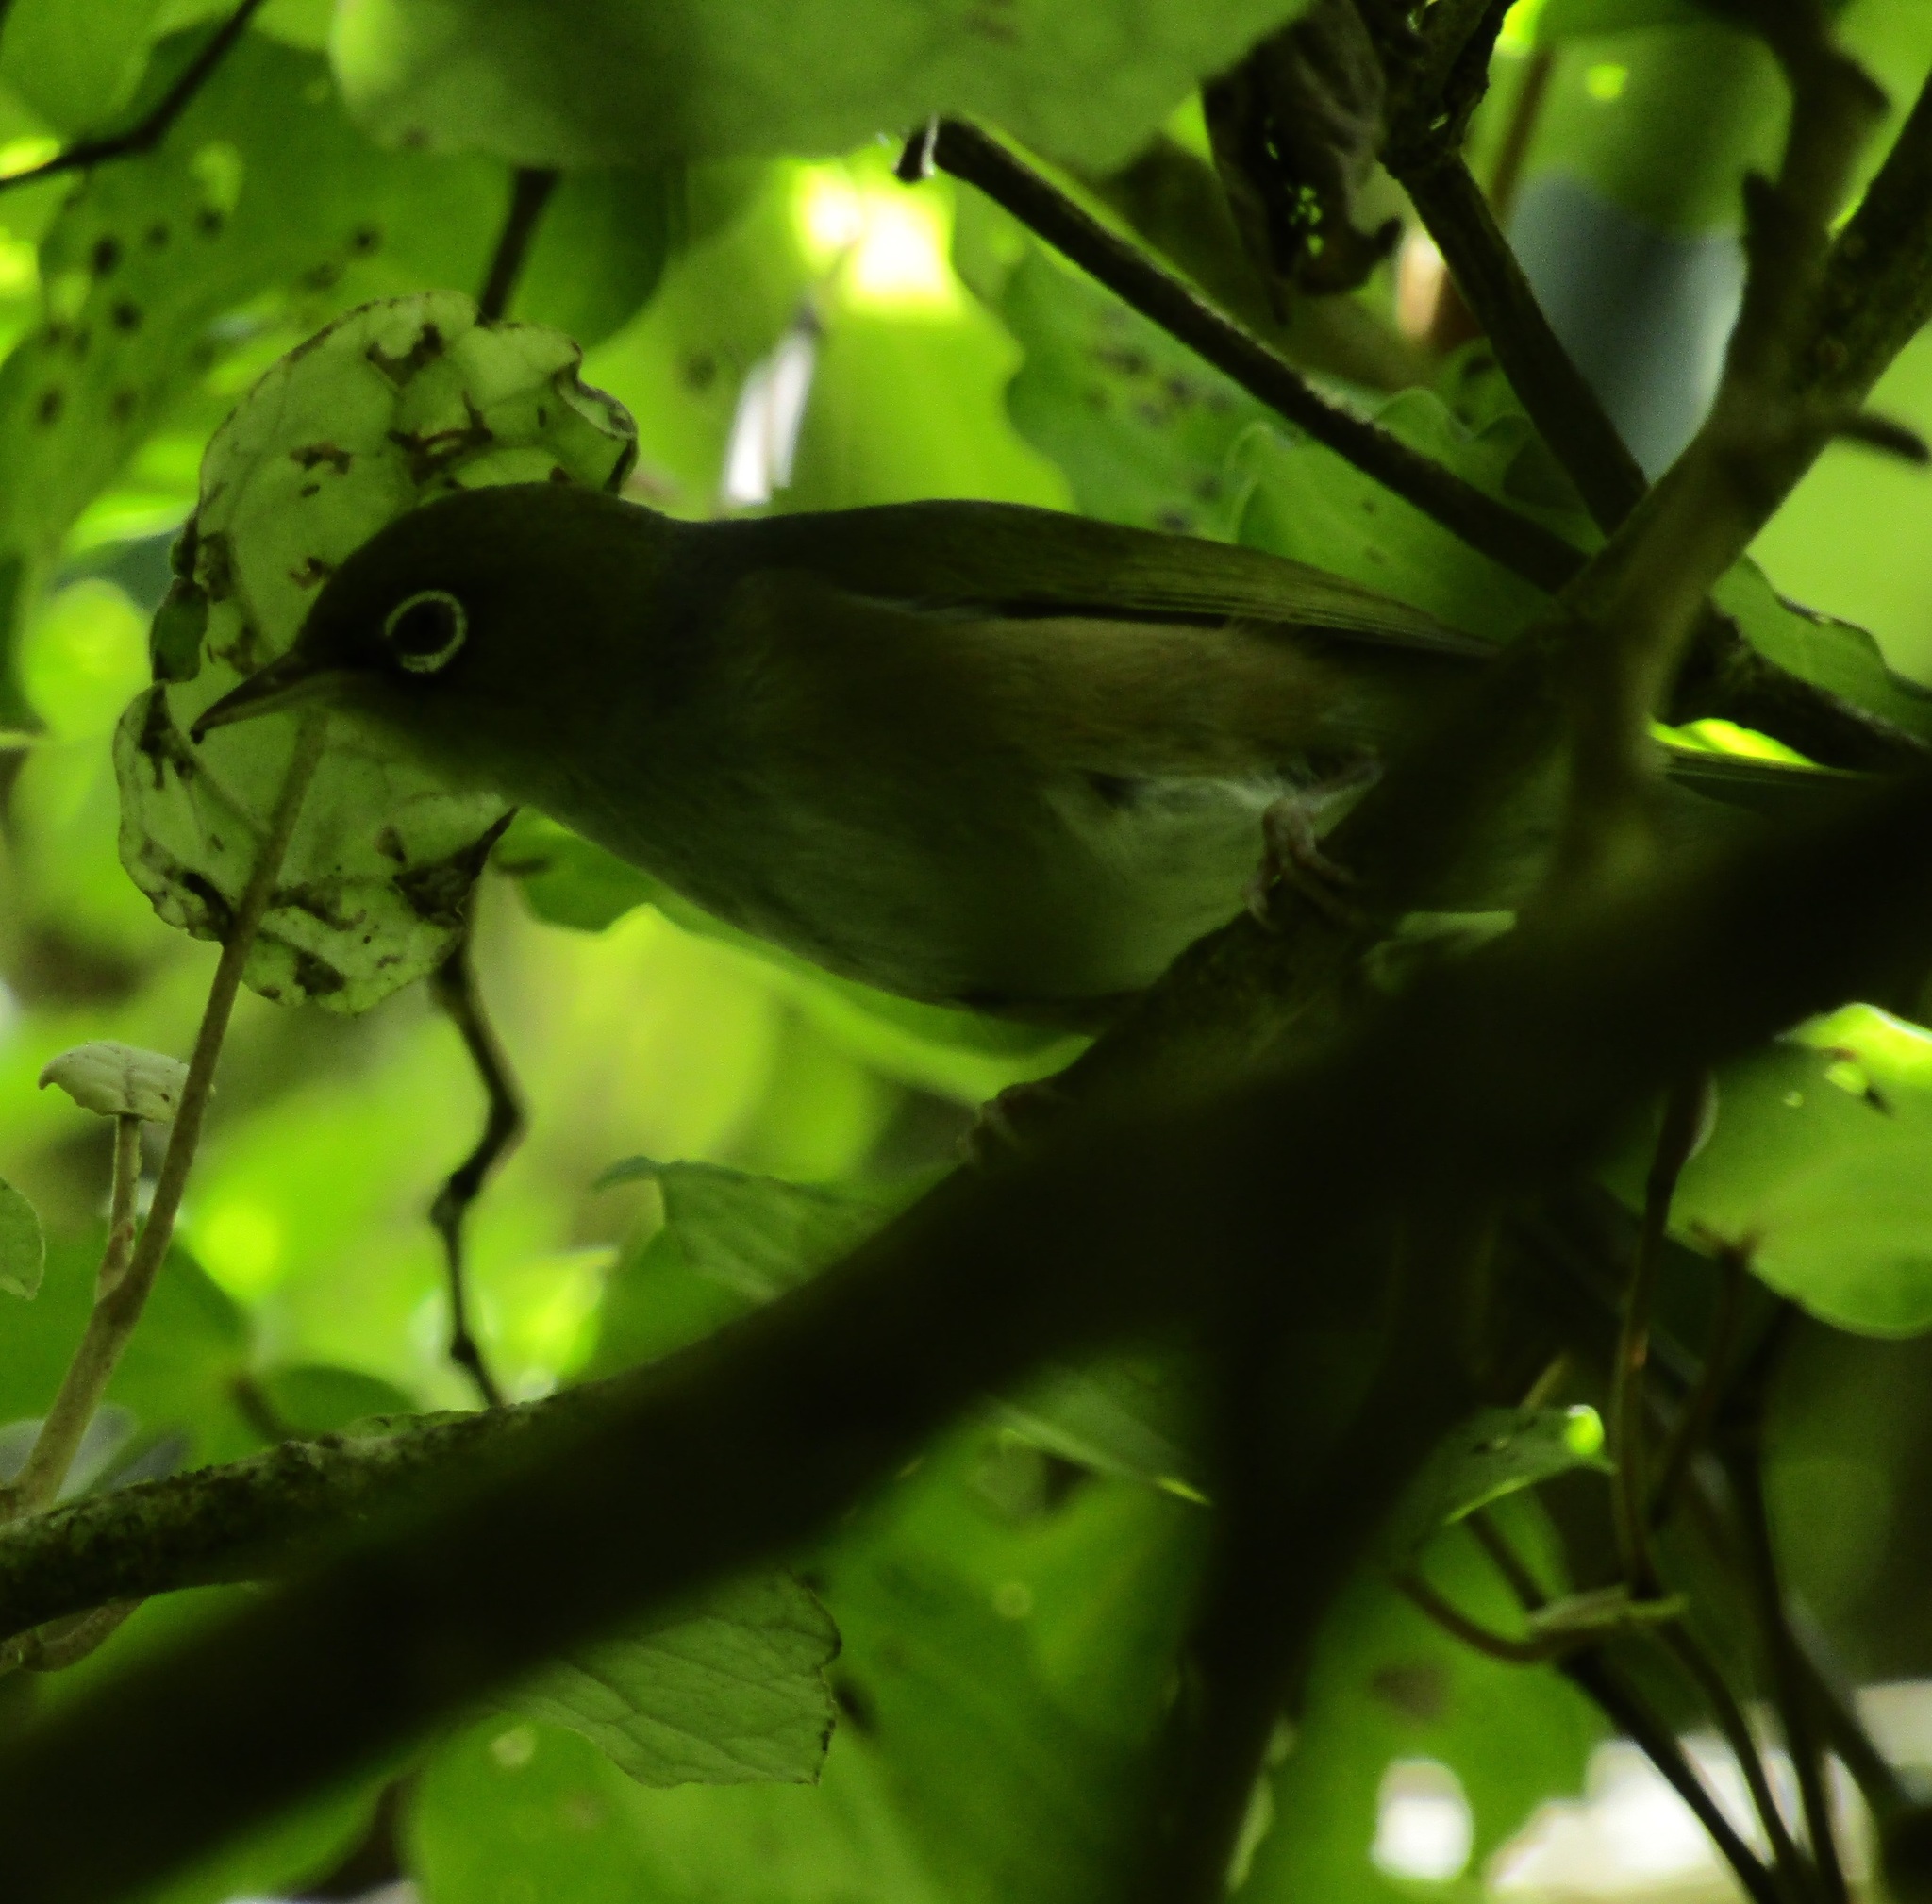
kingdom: Animalia
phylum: Chordata
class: Aves
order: Passeriformes
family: Zosteropidae
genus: Zosterops
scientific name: Zosterops lateralis
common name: Silvereye
